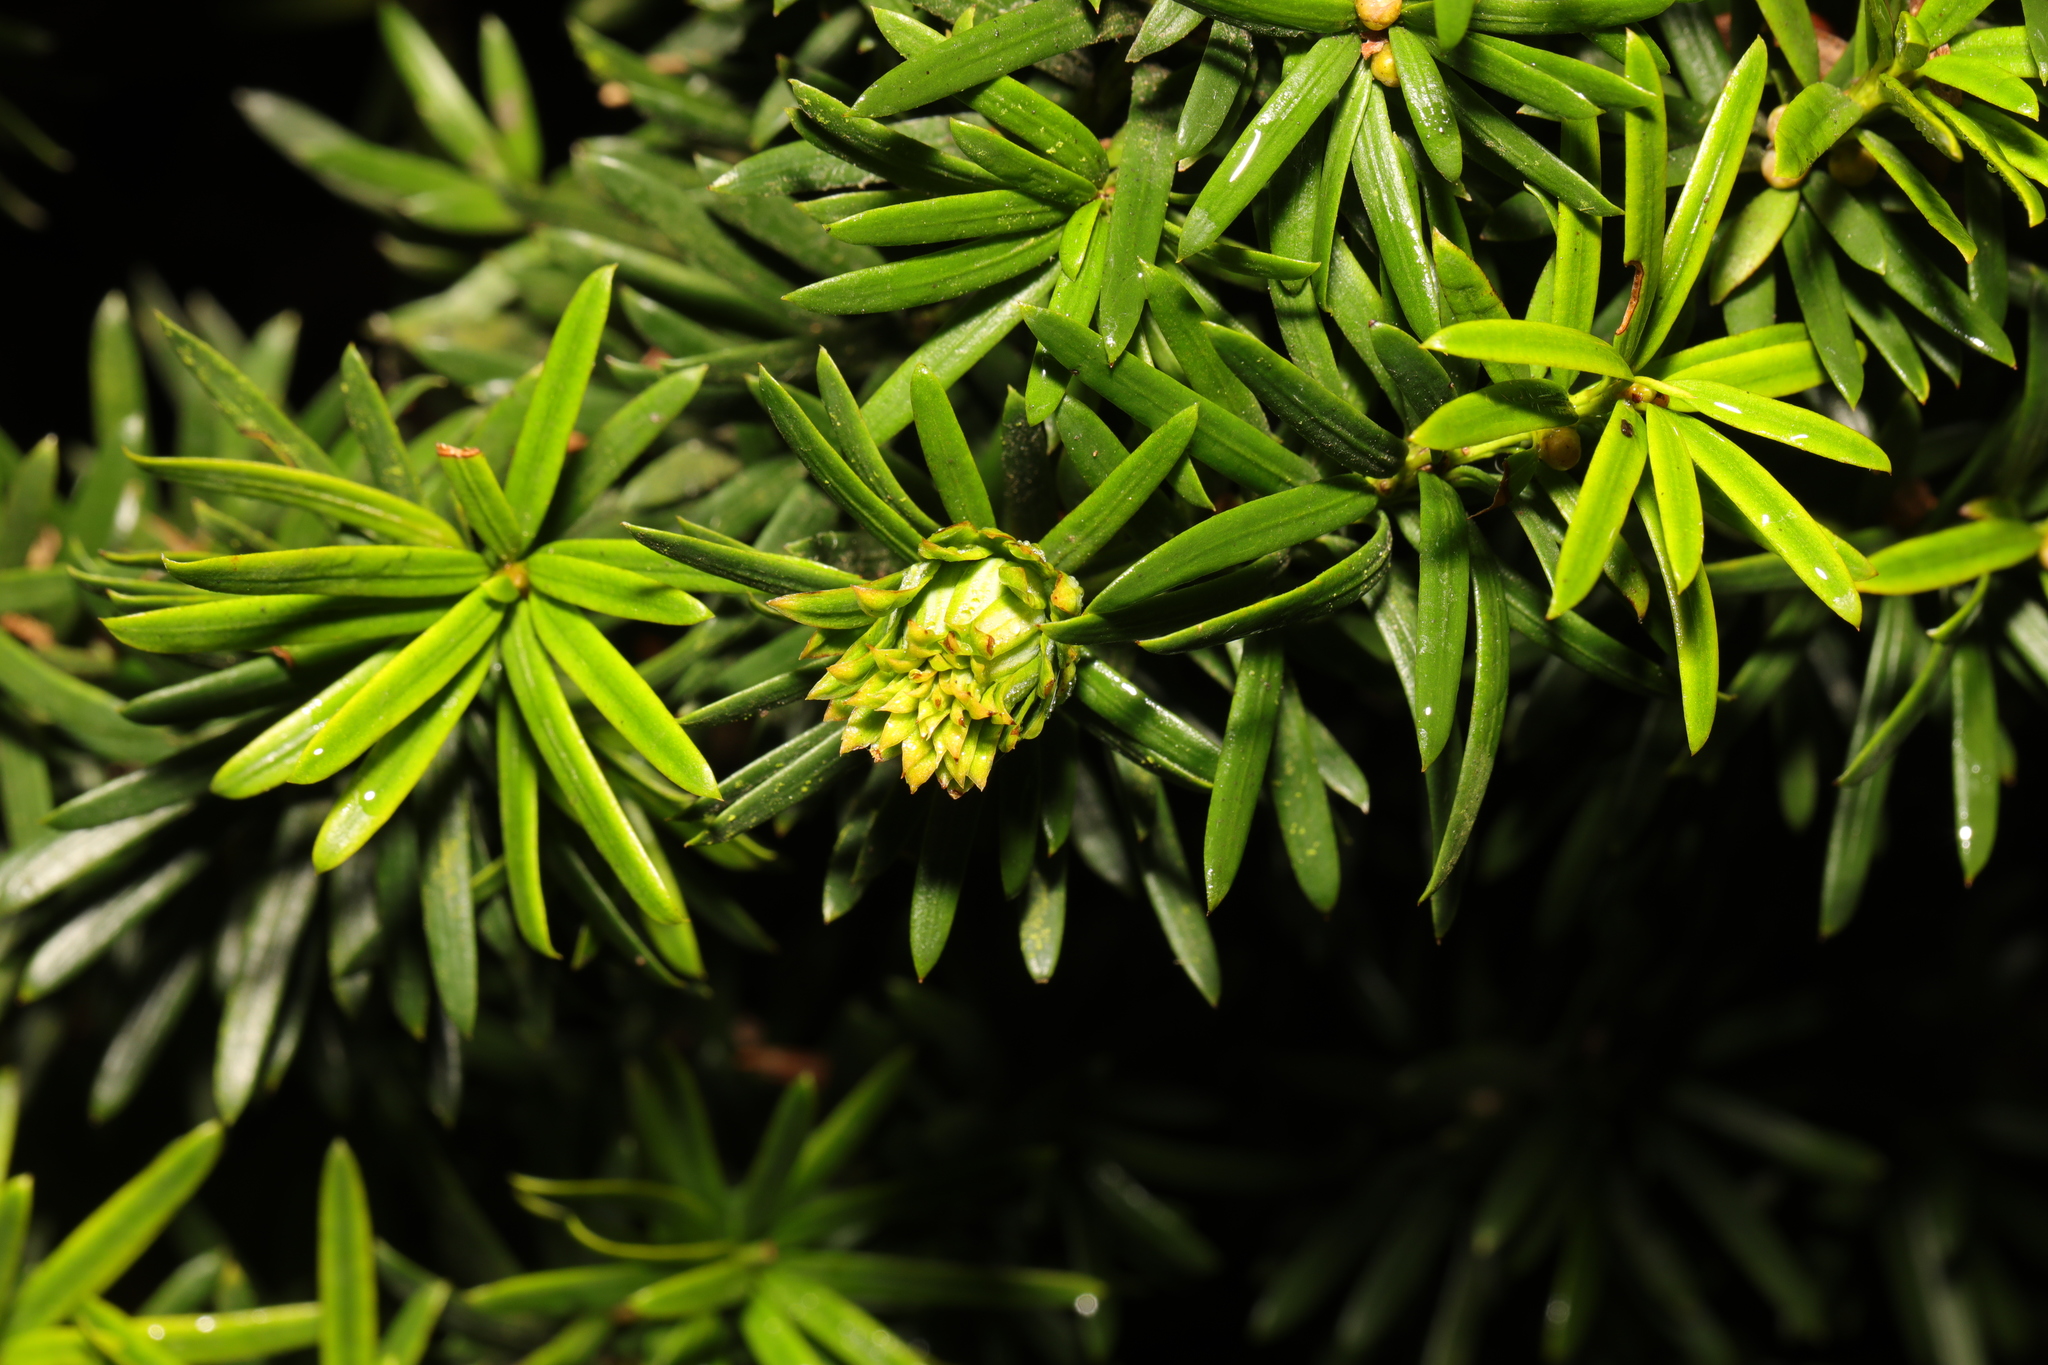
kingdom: Plantae
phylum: Tracheophyta
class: Pinopsida
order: Pinales
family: Taxaceae
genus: Taxus
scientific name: Taxus baccata
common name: Yew
